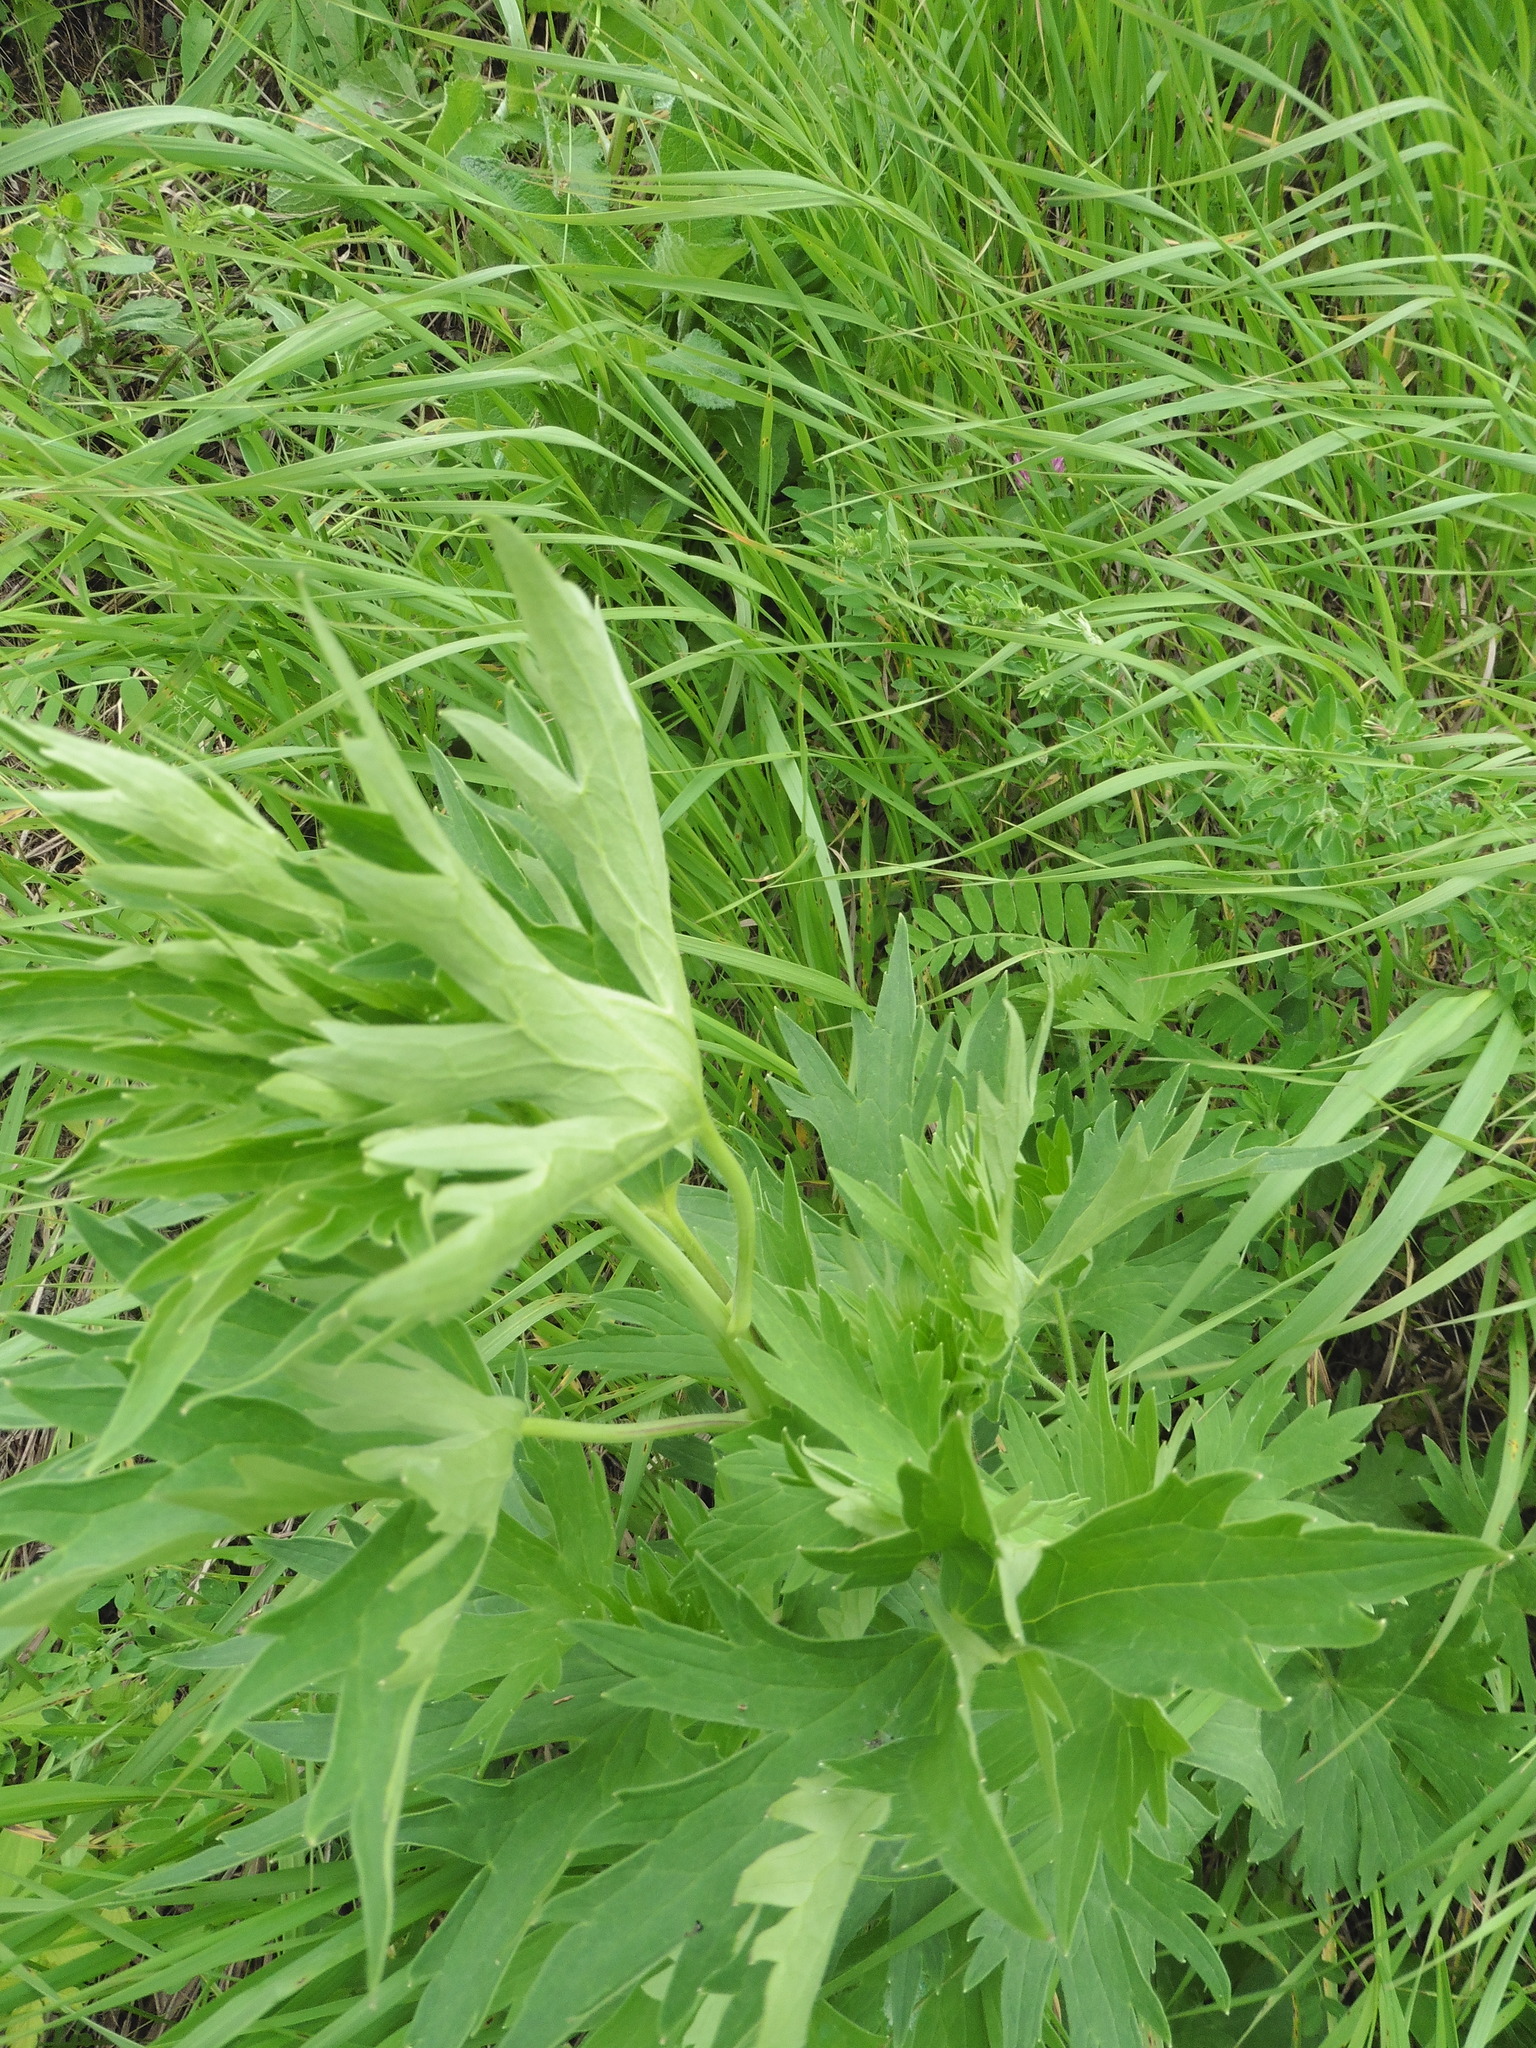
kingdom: Plantae
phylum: Tracheophyta
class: Magnoliopsida
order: Ranunculales
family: Ranunculaceae
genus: Delphinium
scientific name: Delphinium cuneatum
